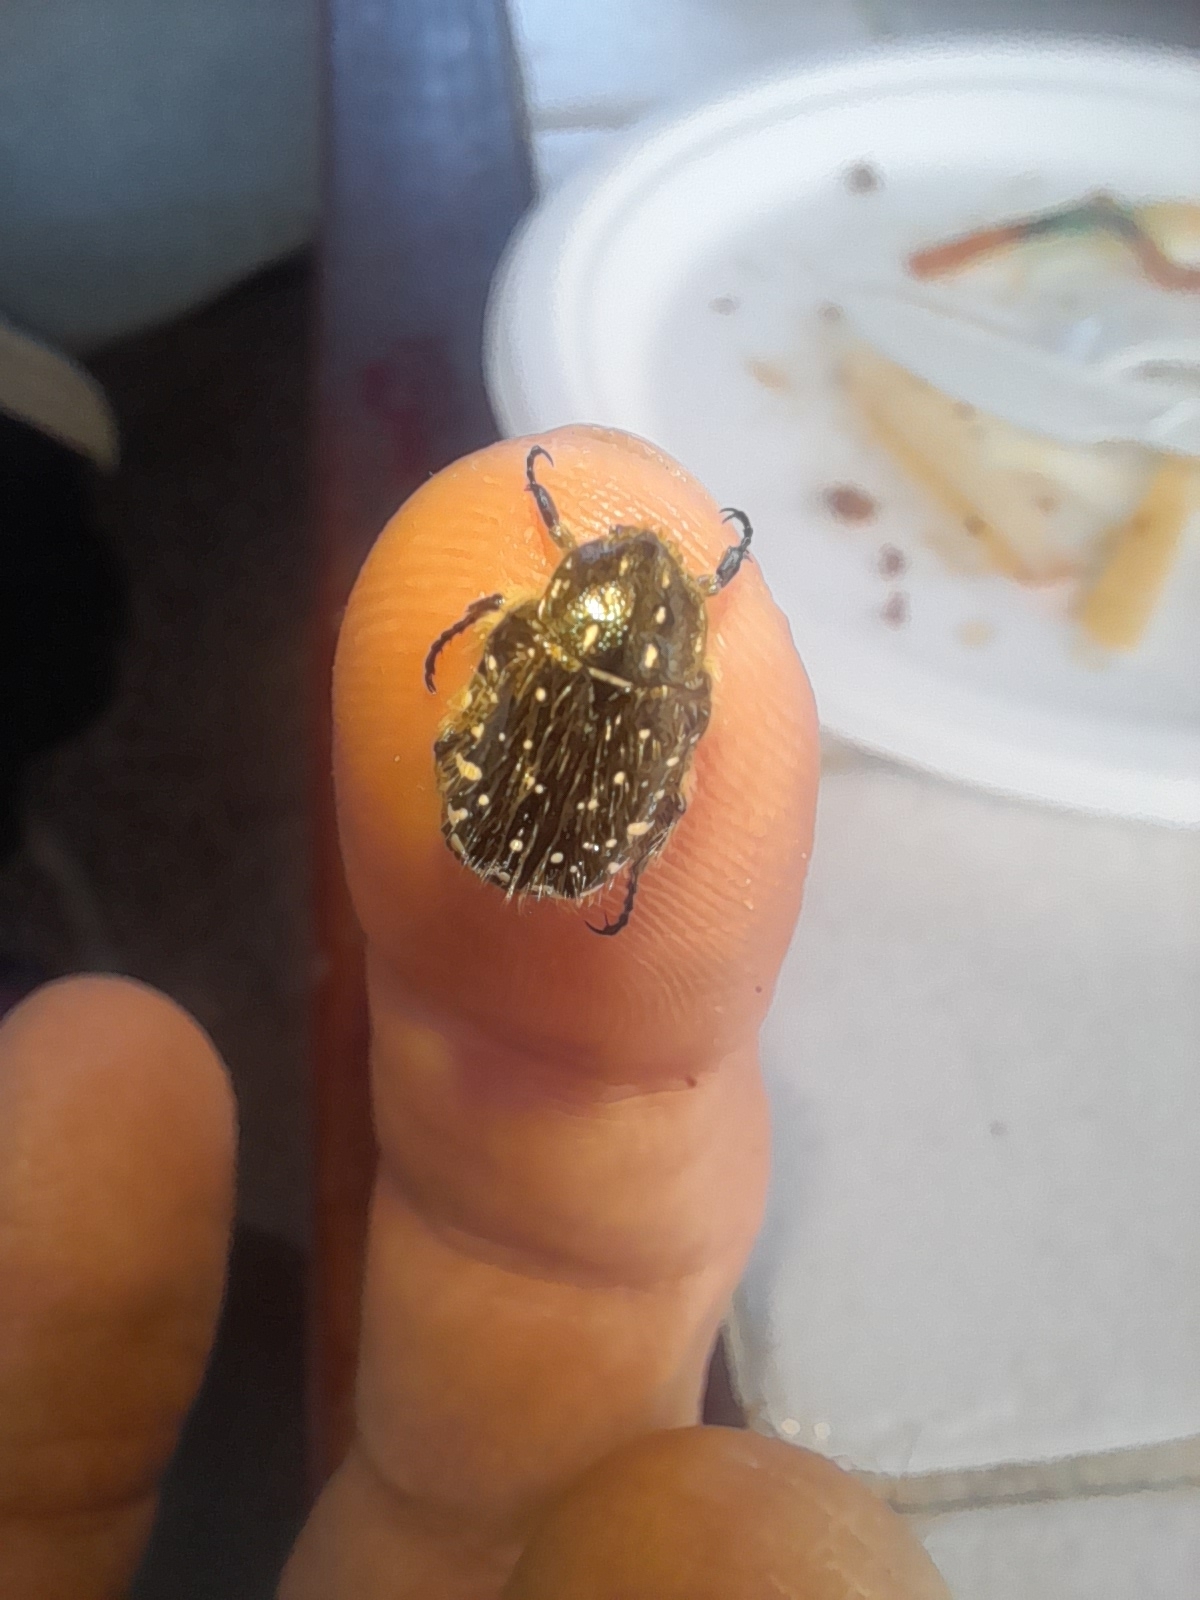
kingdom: Animalia
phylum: Arthropoda
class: Insecta
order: Coleoptera
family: Scarabaeidae
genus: Oxythyrea
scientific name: Oxythyrea funesta
